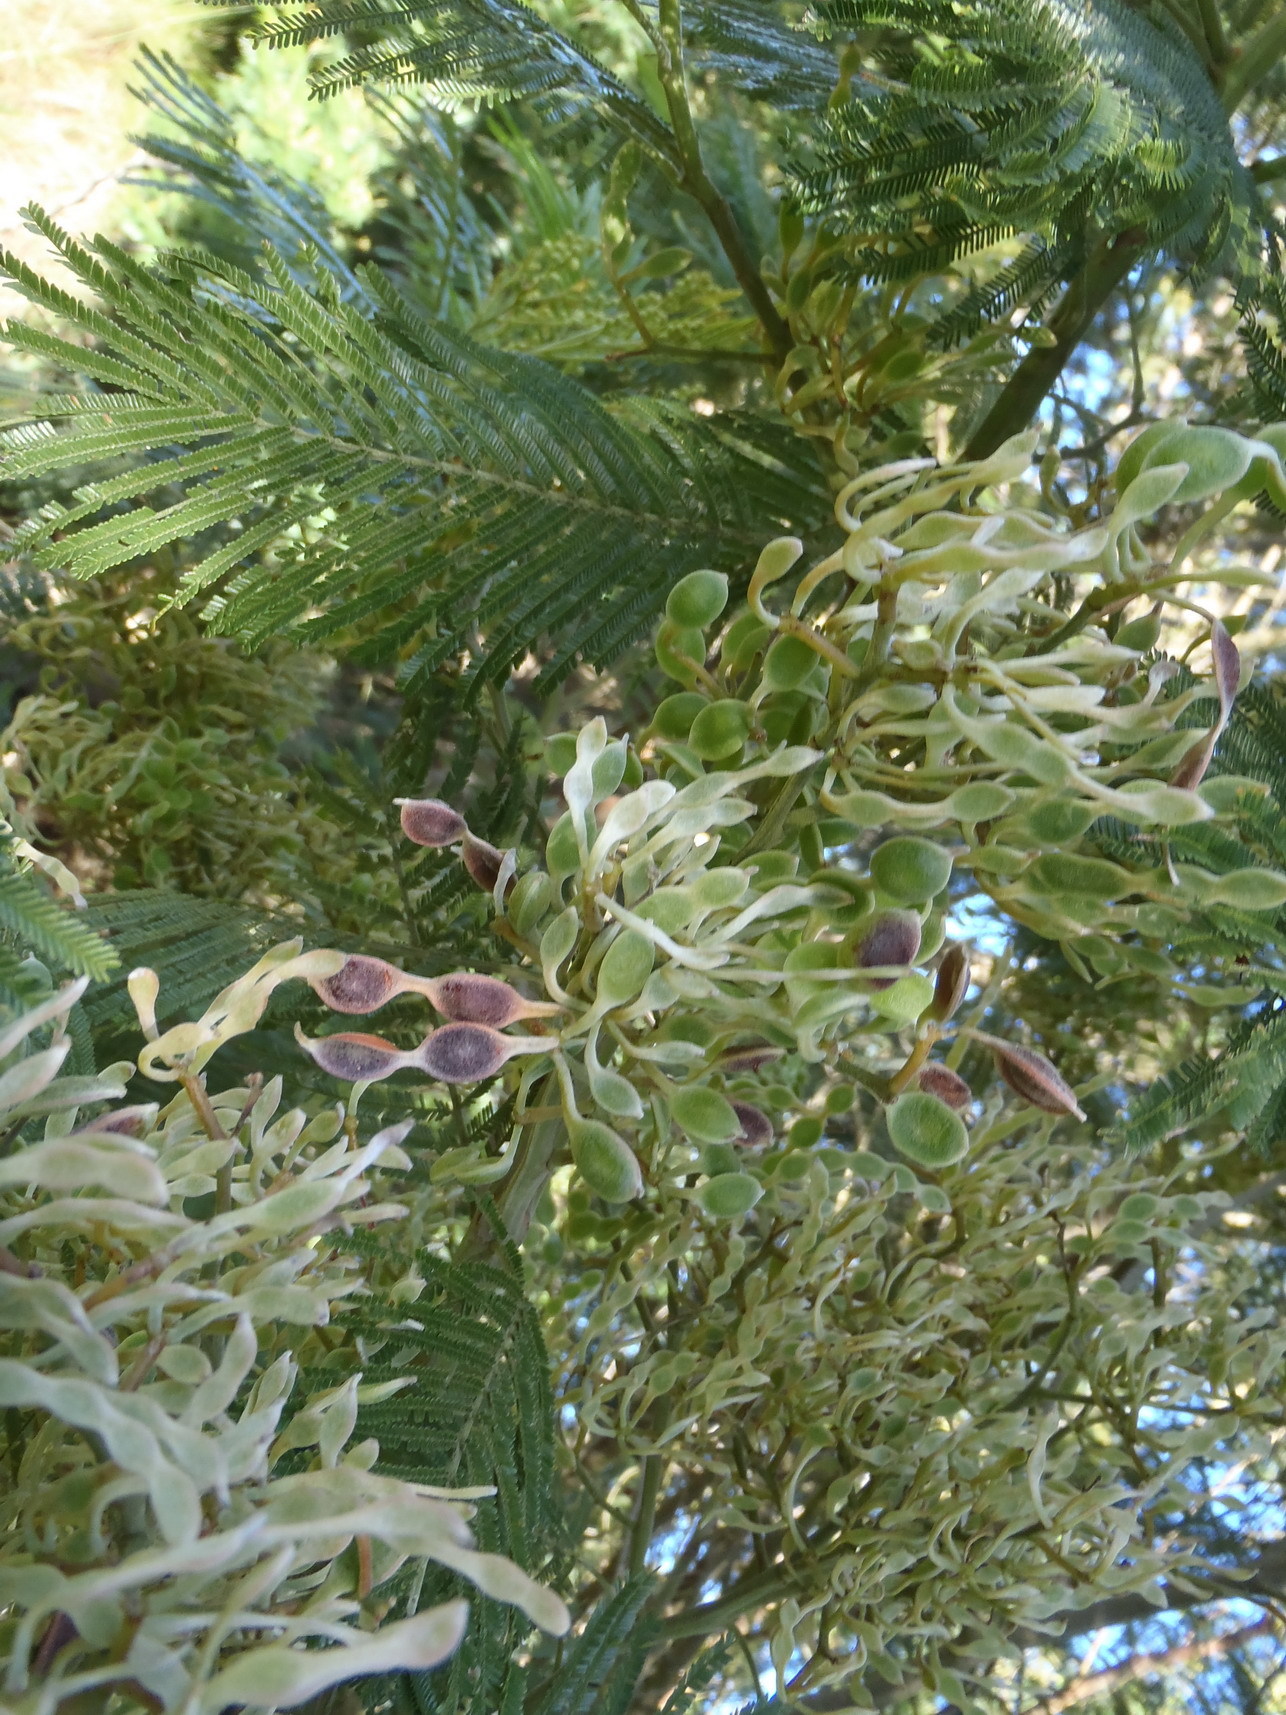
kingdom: Plantae
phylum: Tracheophyta
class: Magnoliopsida
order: Fabales
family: Fabaceae
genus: Acacia
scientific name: Acacia mearnsii
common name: Black wattle
